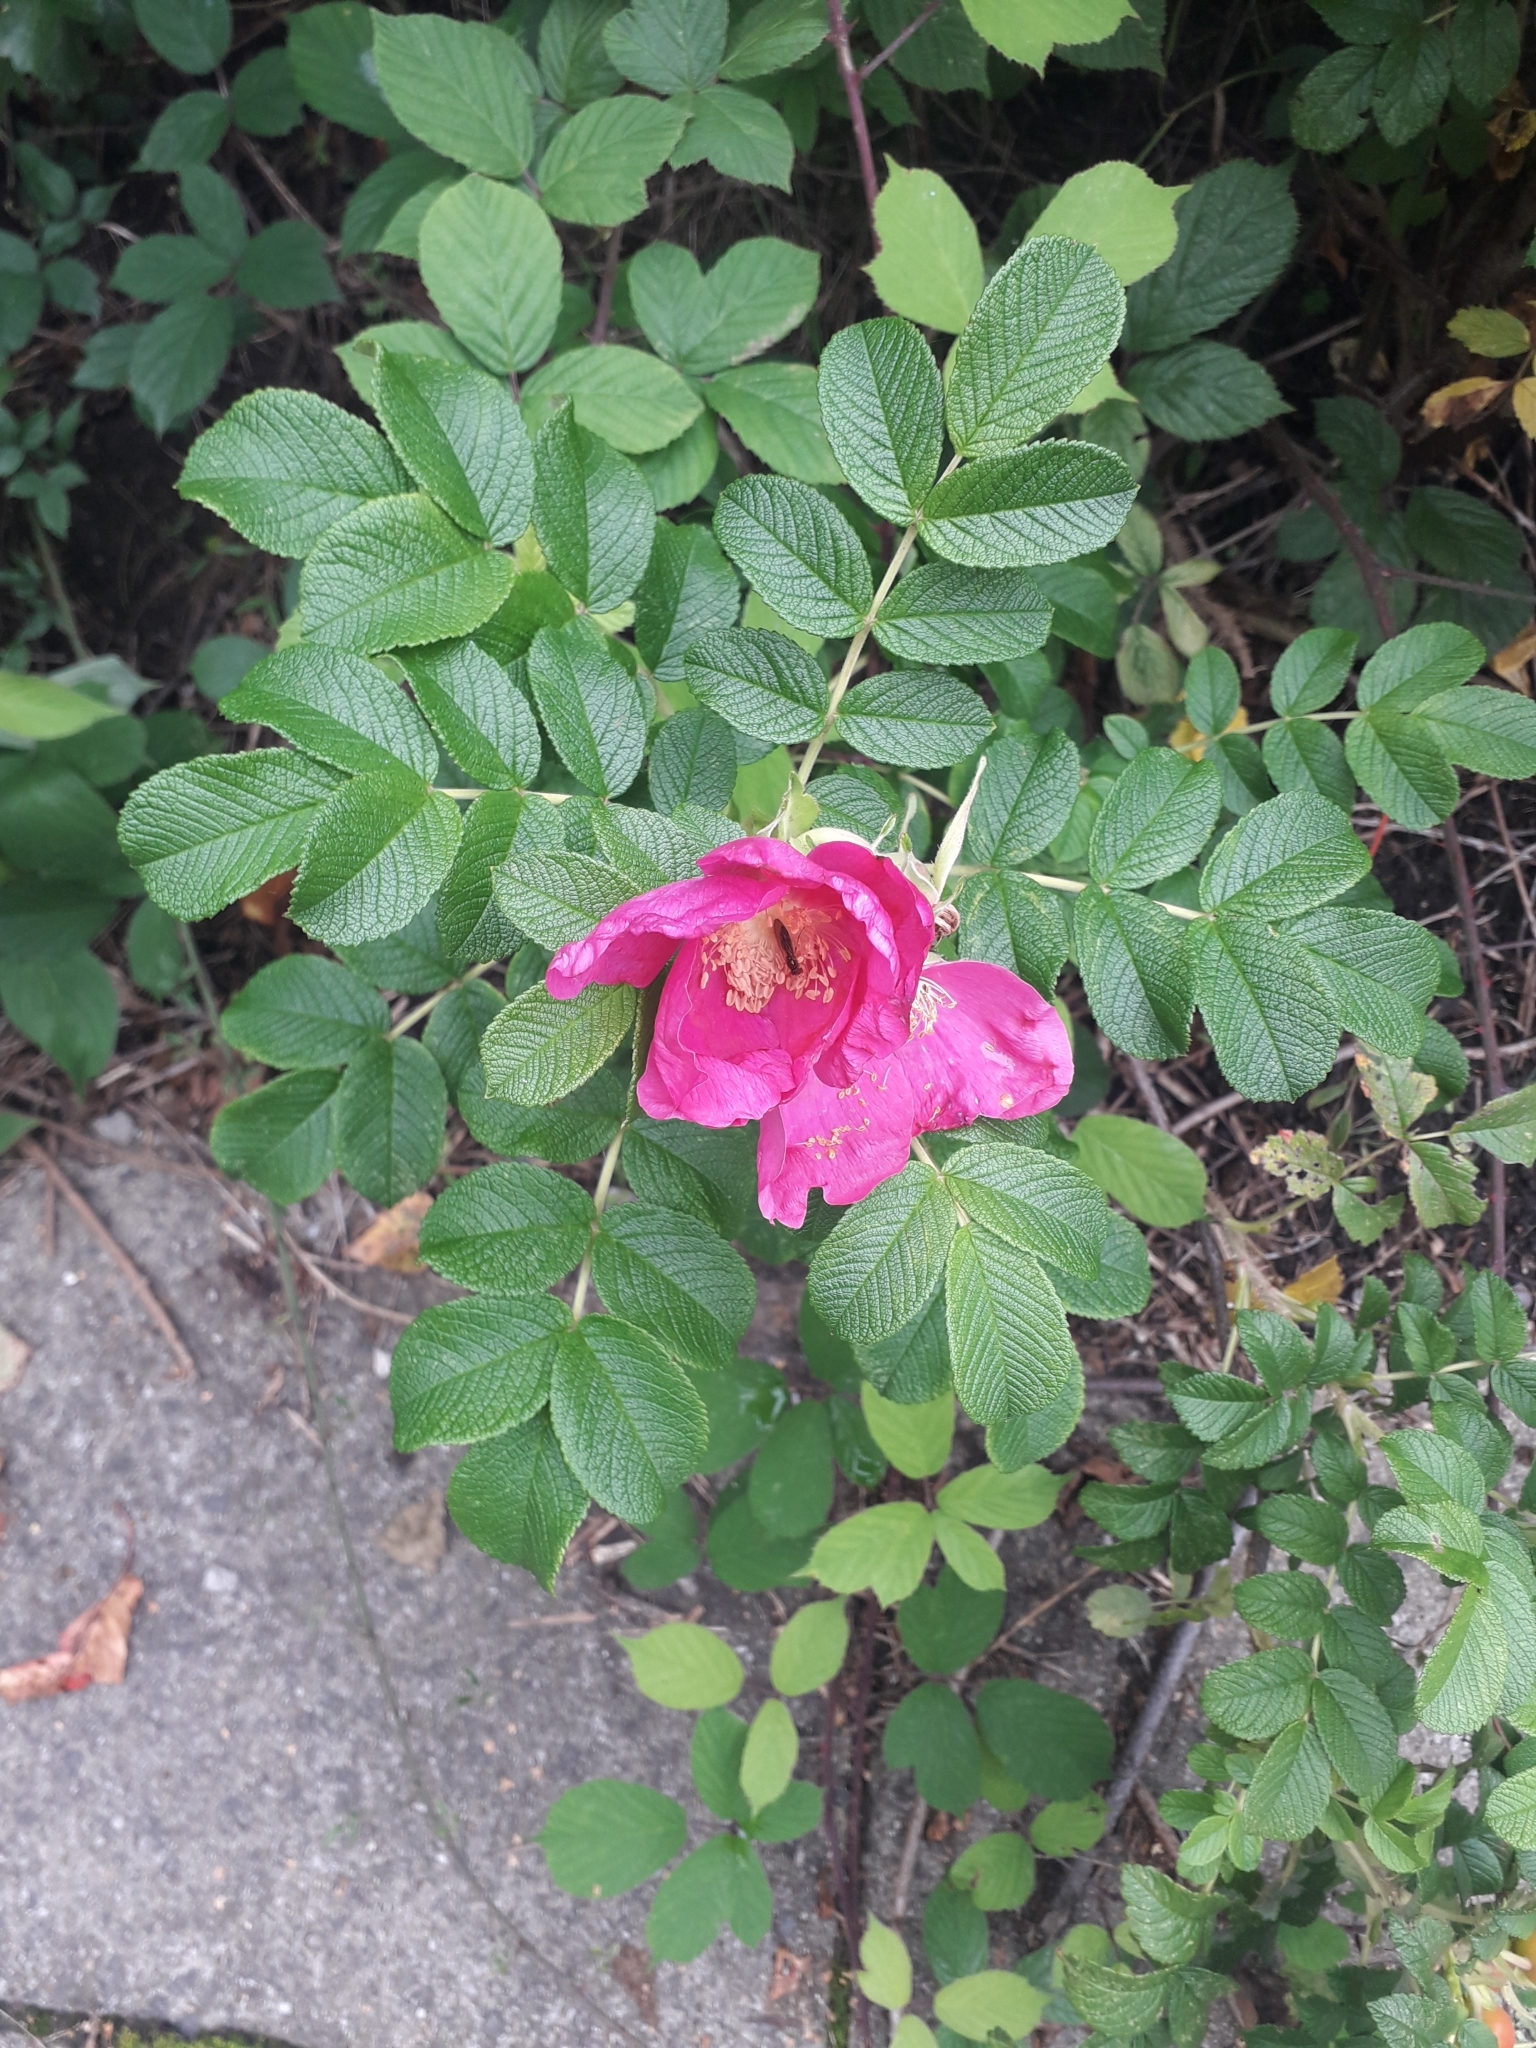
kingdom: Plantae
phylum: Tracheophyta
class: Magnoliopsida
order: Rosales
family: Rosaceae
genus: Rosa
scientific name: Rosa rugosa
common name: Japanese rose
